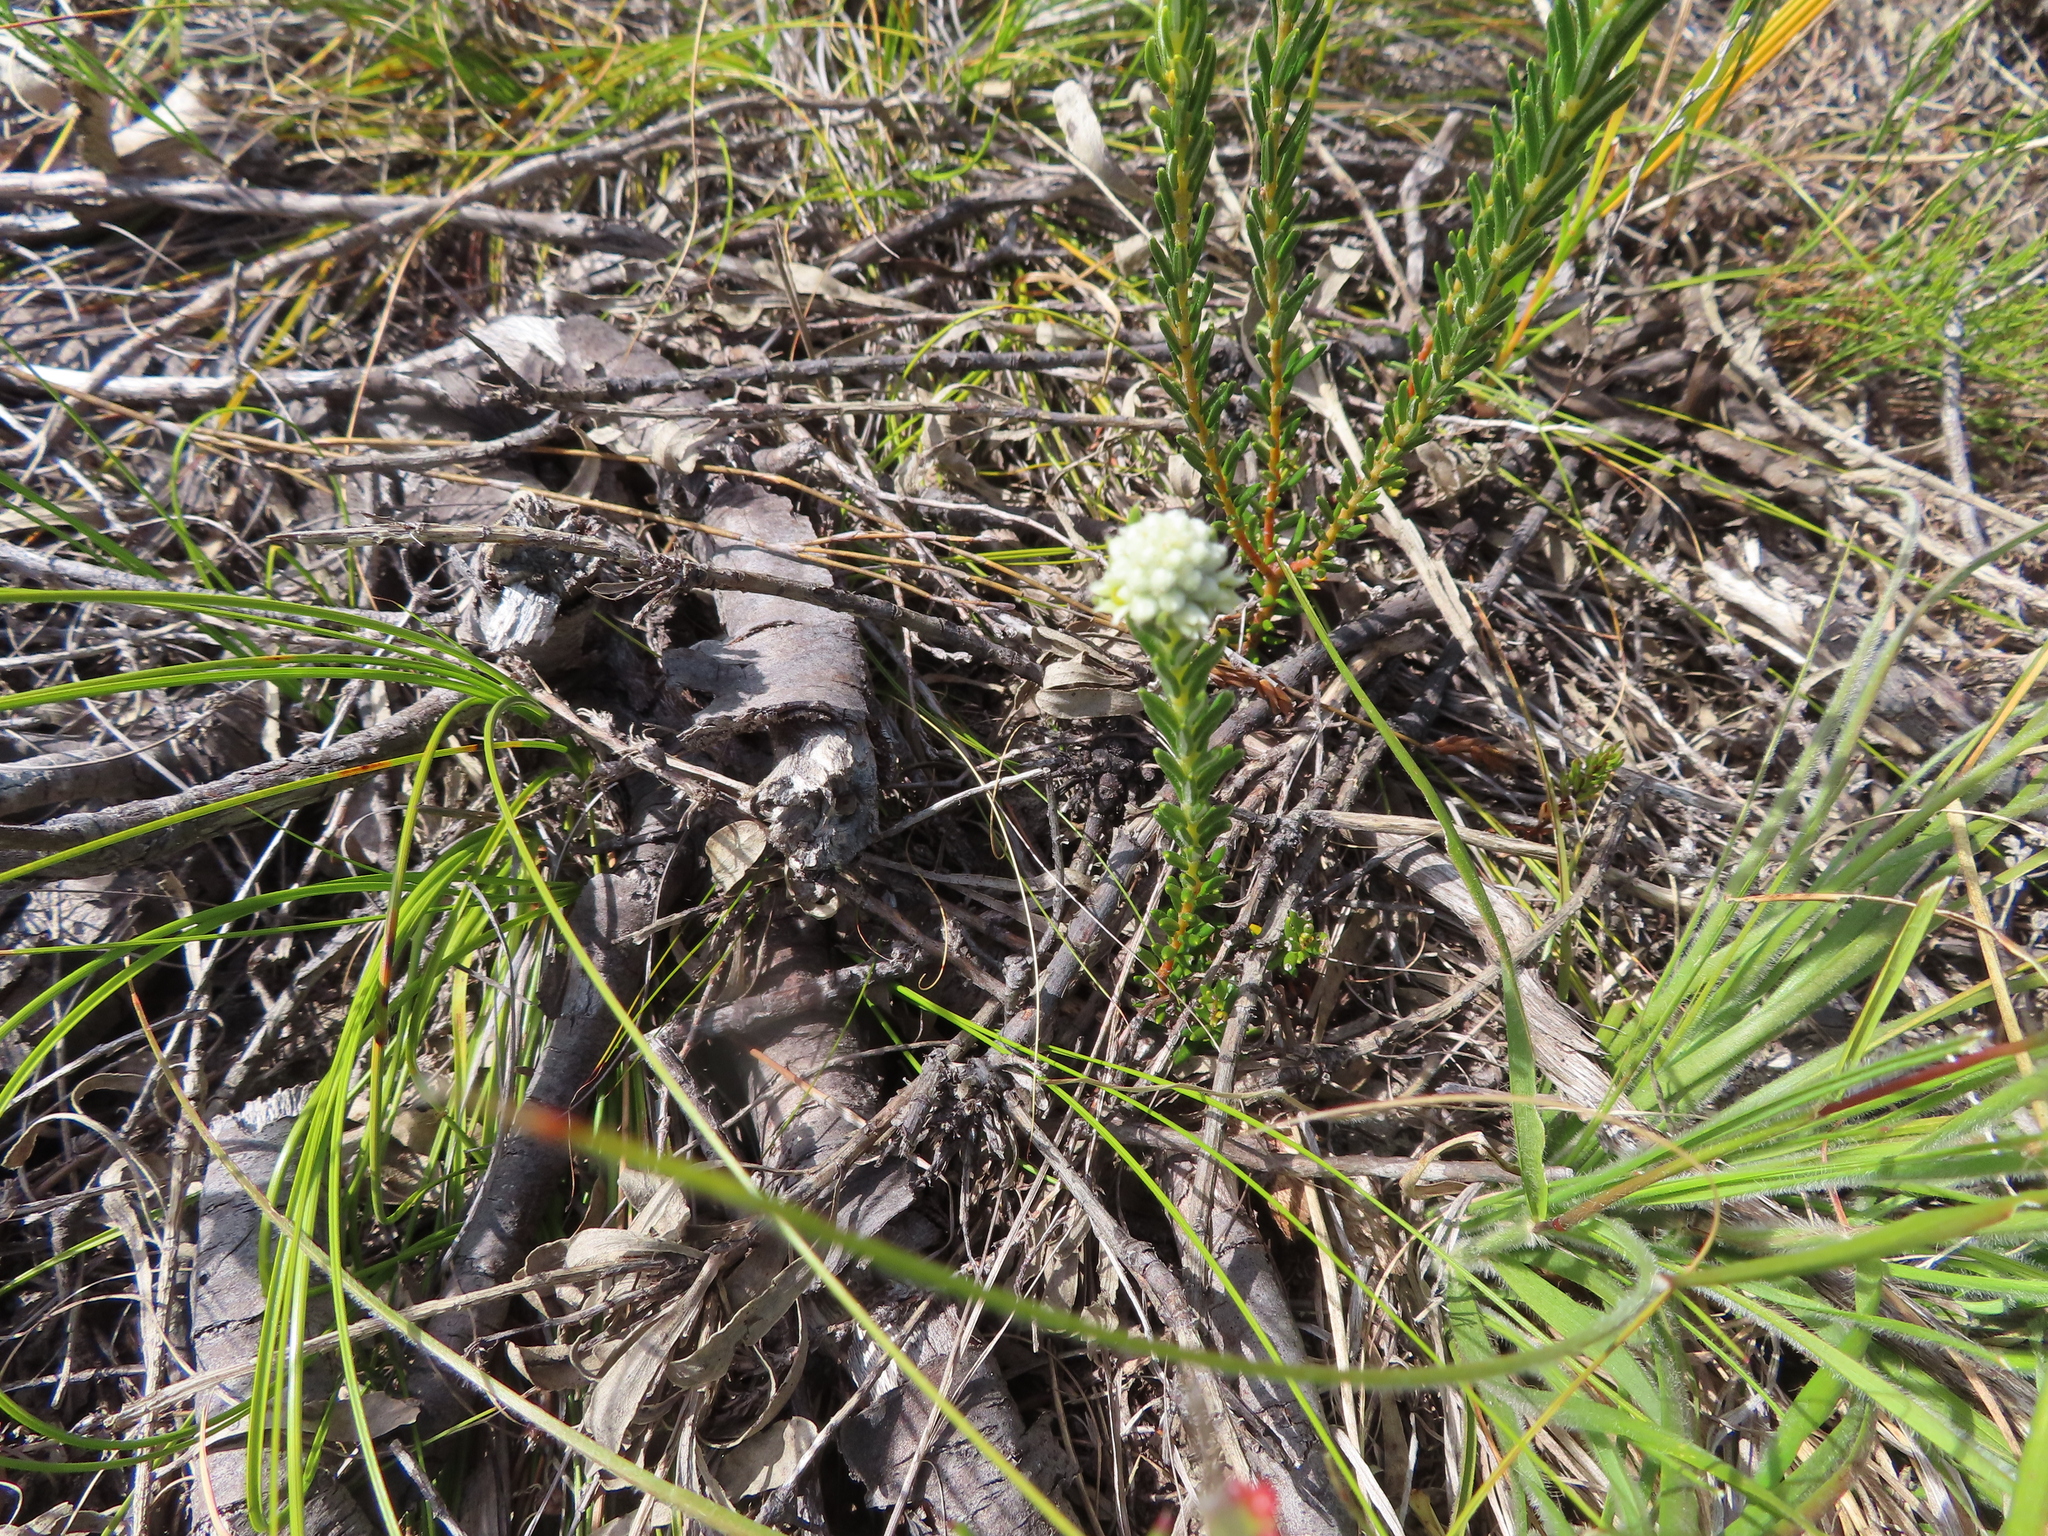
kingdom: Plantae
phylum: Tracheophyta
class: Magnoliopsida
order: Rosales
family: Rhamnaceae
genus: Phylica
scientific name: Phylica imberbis
